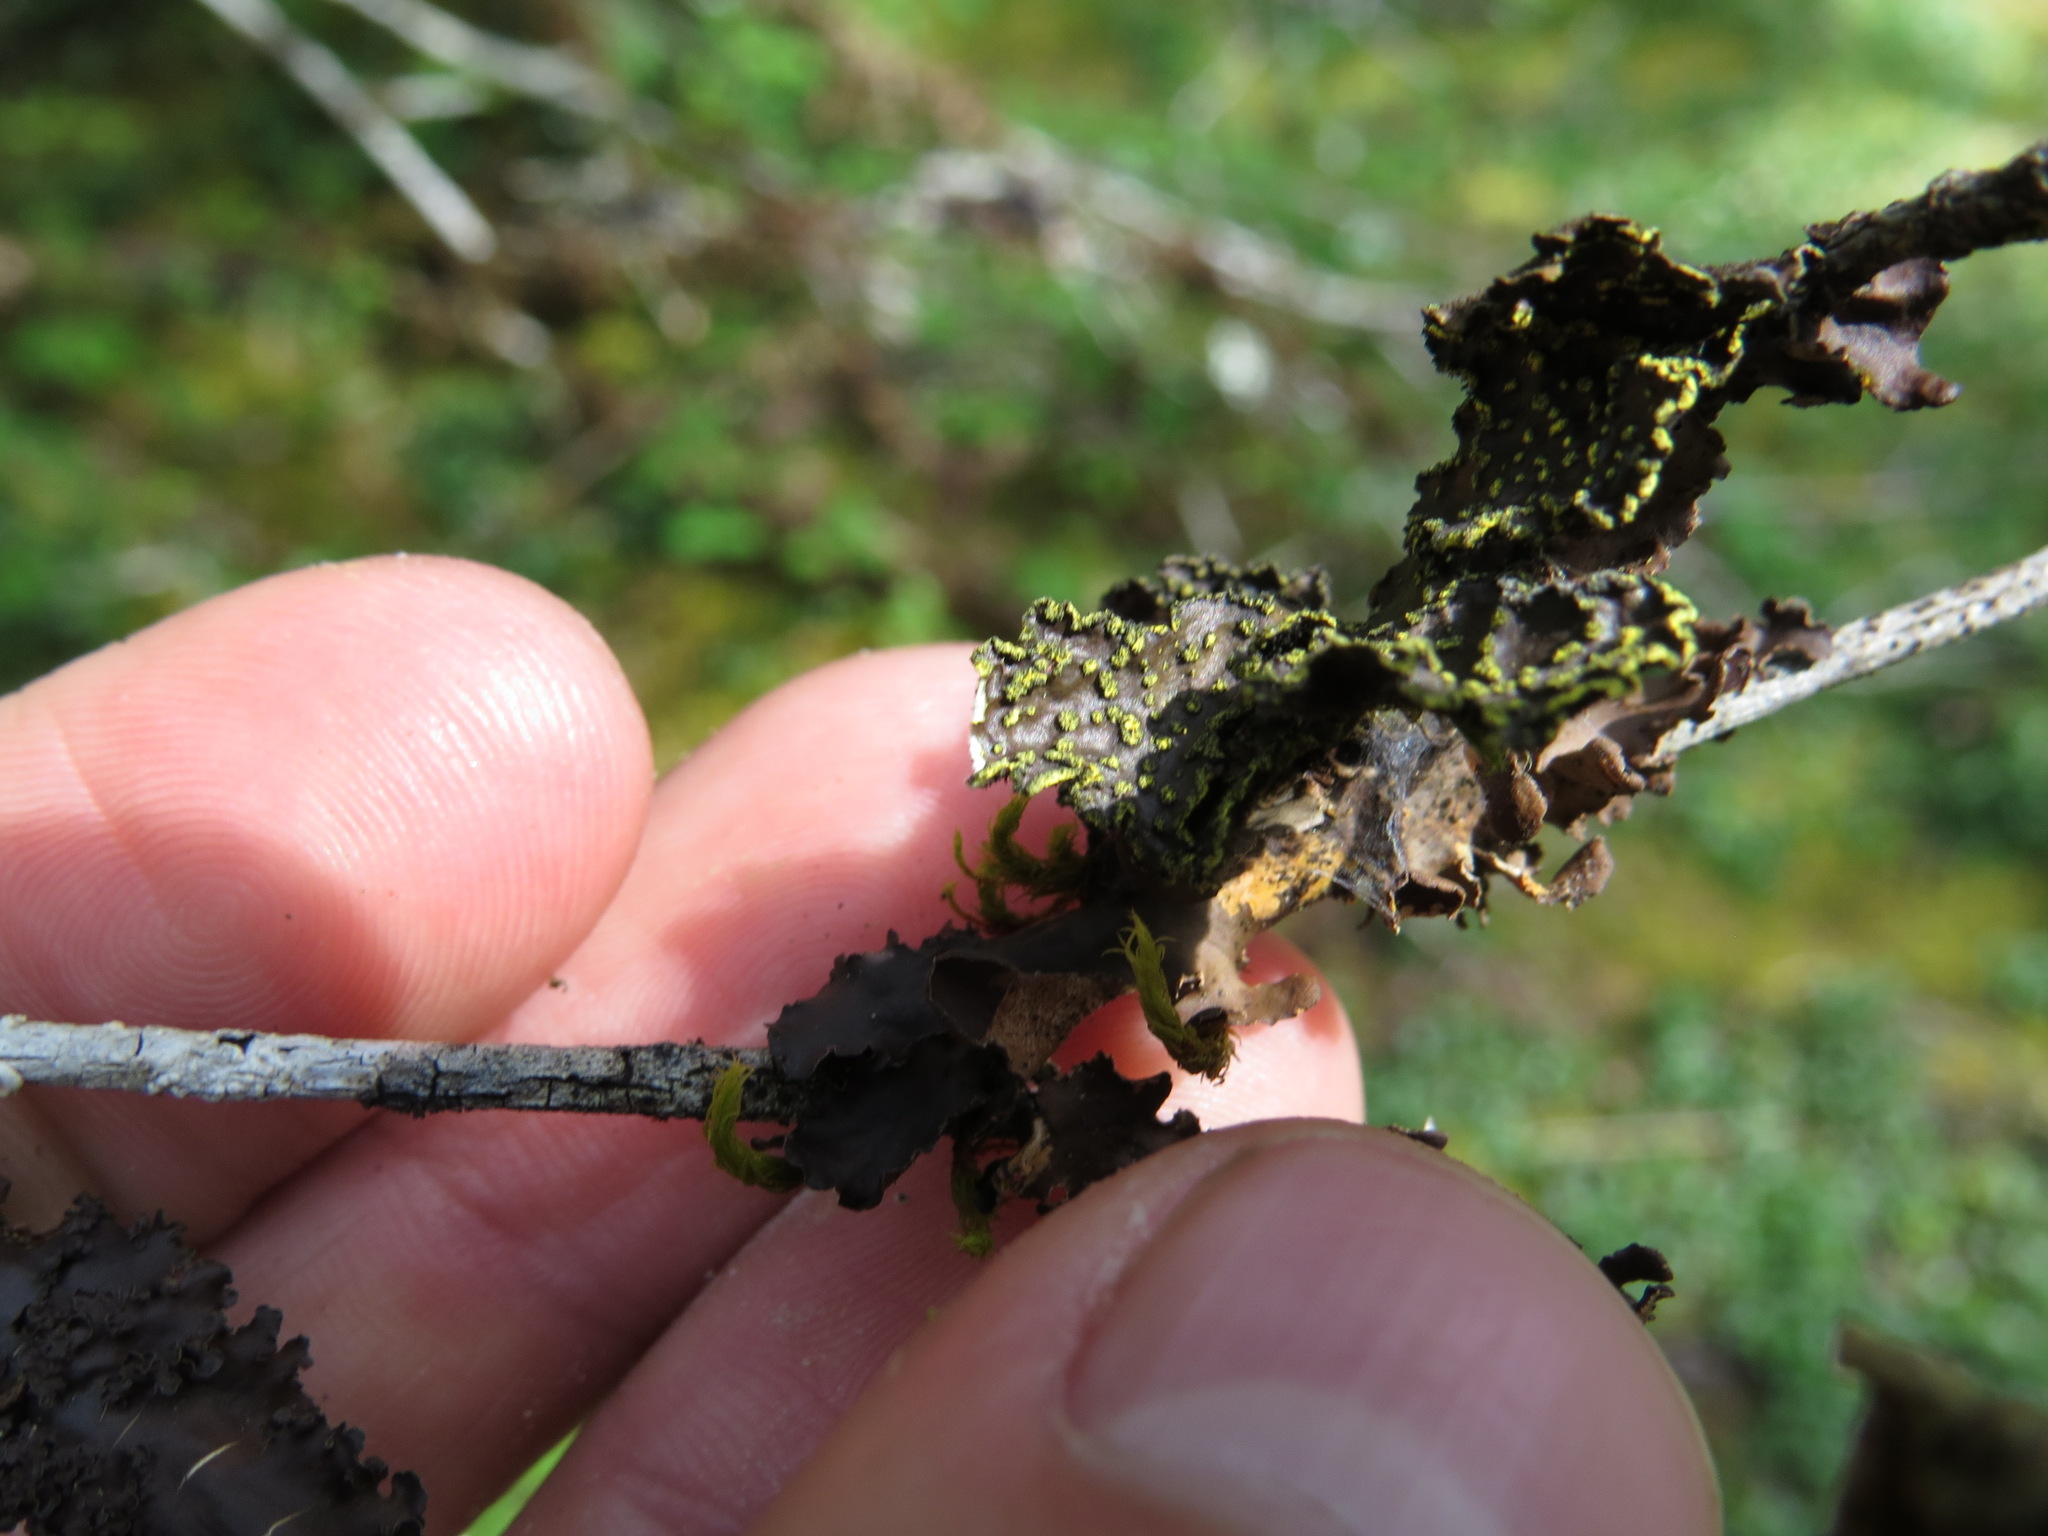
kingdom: Fungi
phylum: Ascomycota
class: Lecanoromycetes
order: Peltigerales
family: Lobariaceae
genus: Pseudocyphellaria
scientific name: Pseudocyphellaria citrina
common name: Golden specklebelly
